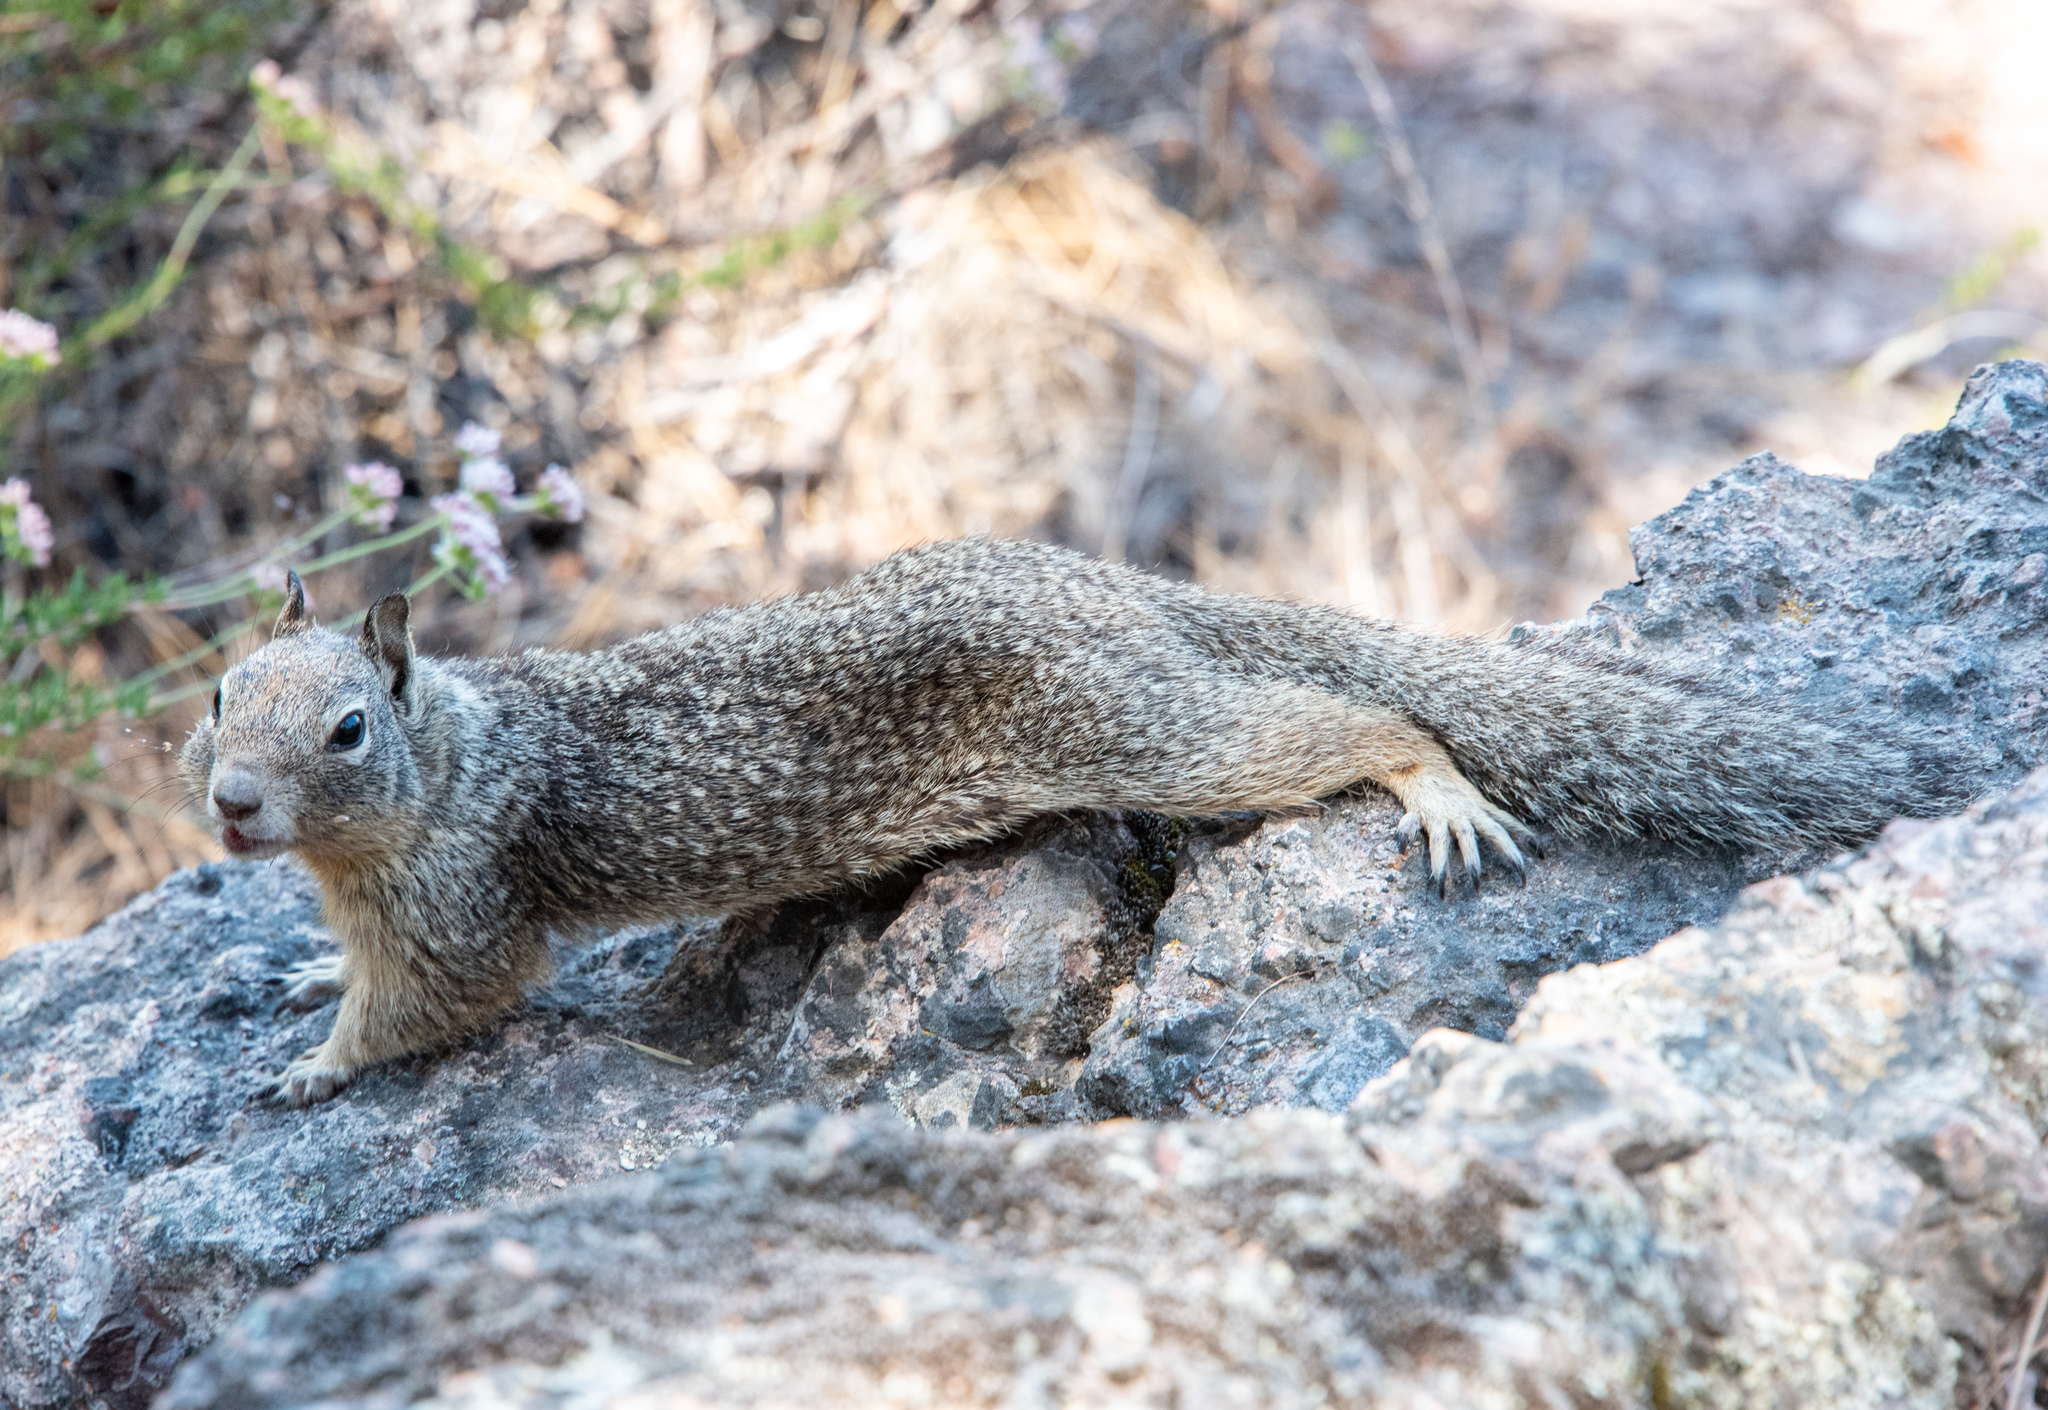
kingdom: Animalia
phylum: Chordata
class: Mammalia
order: Rodentia
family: Sciuridae
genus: Otospermophilus
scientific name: Otospermophilus beecheyi
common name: California ground squirrel
